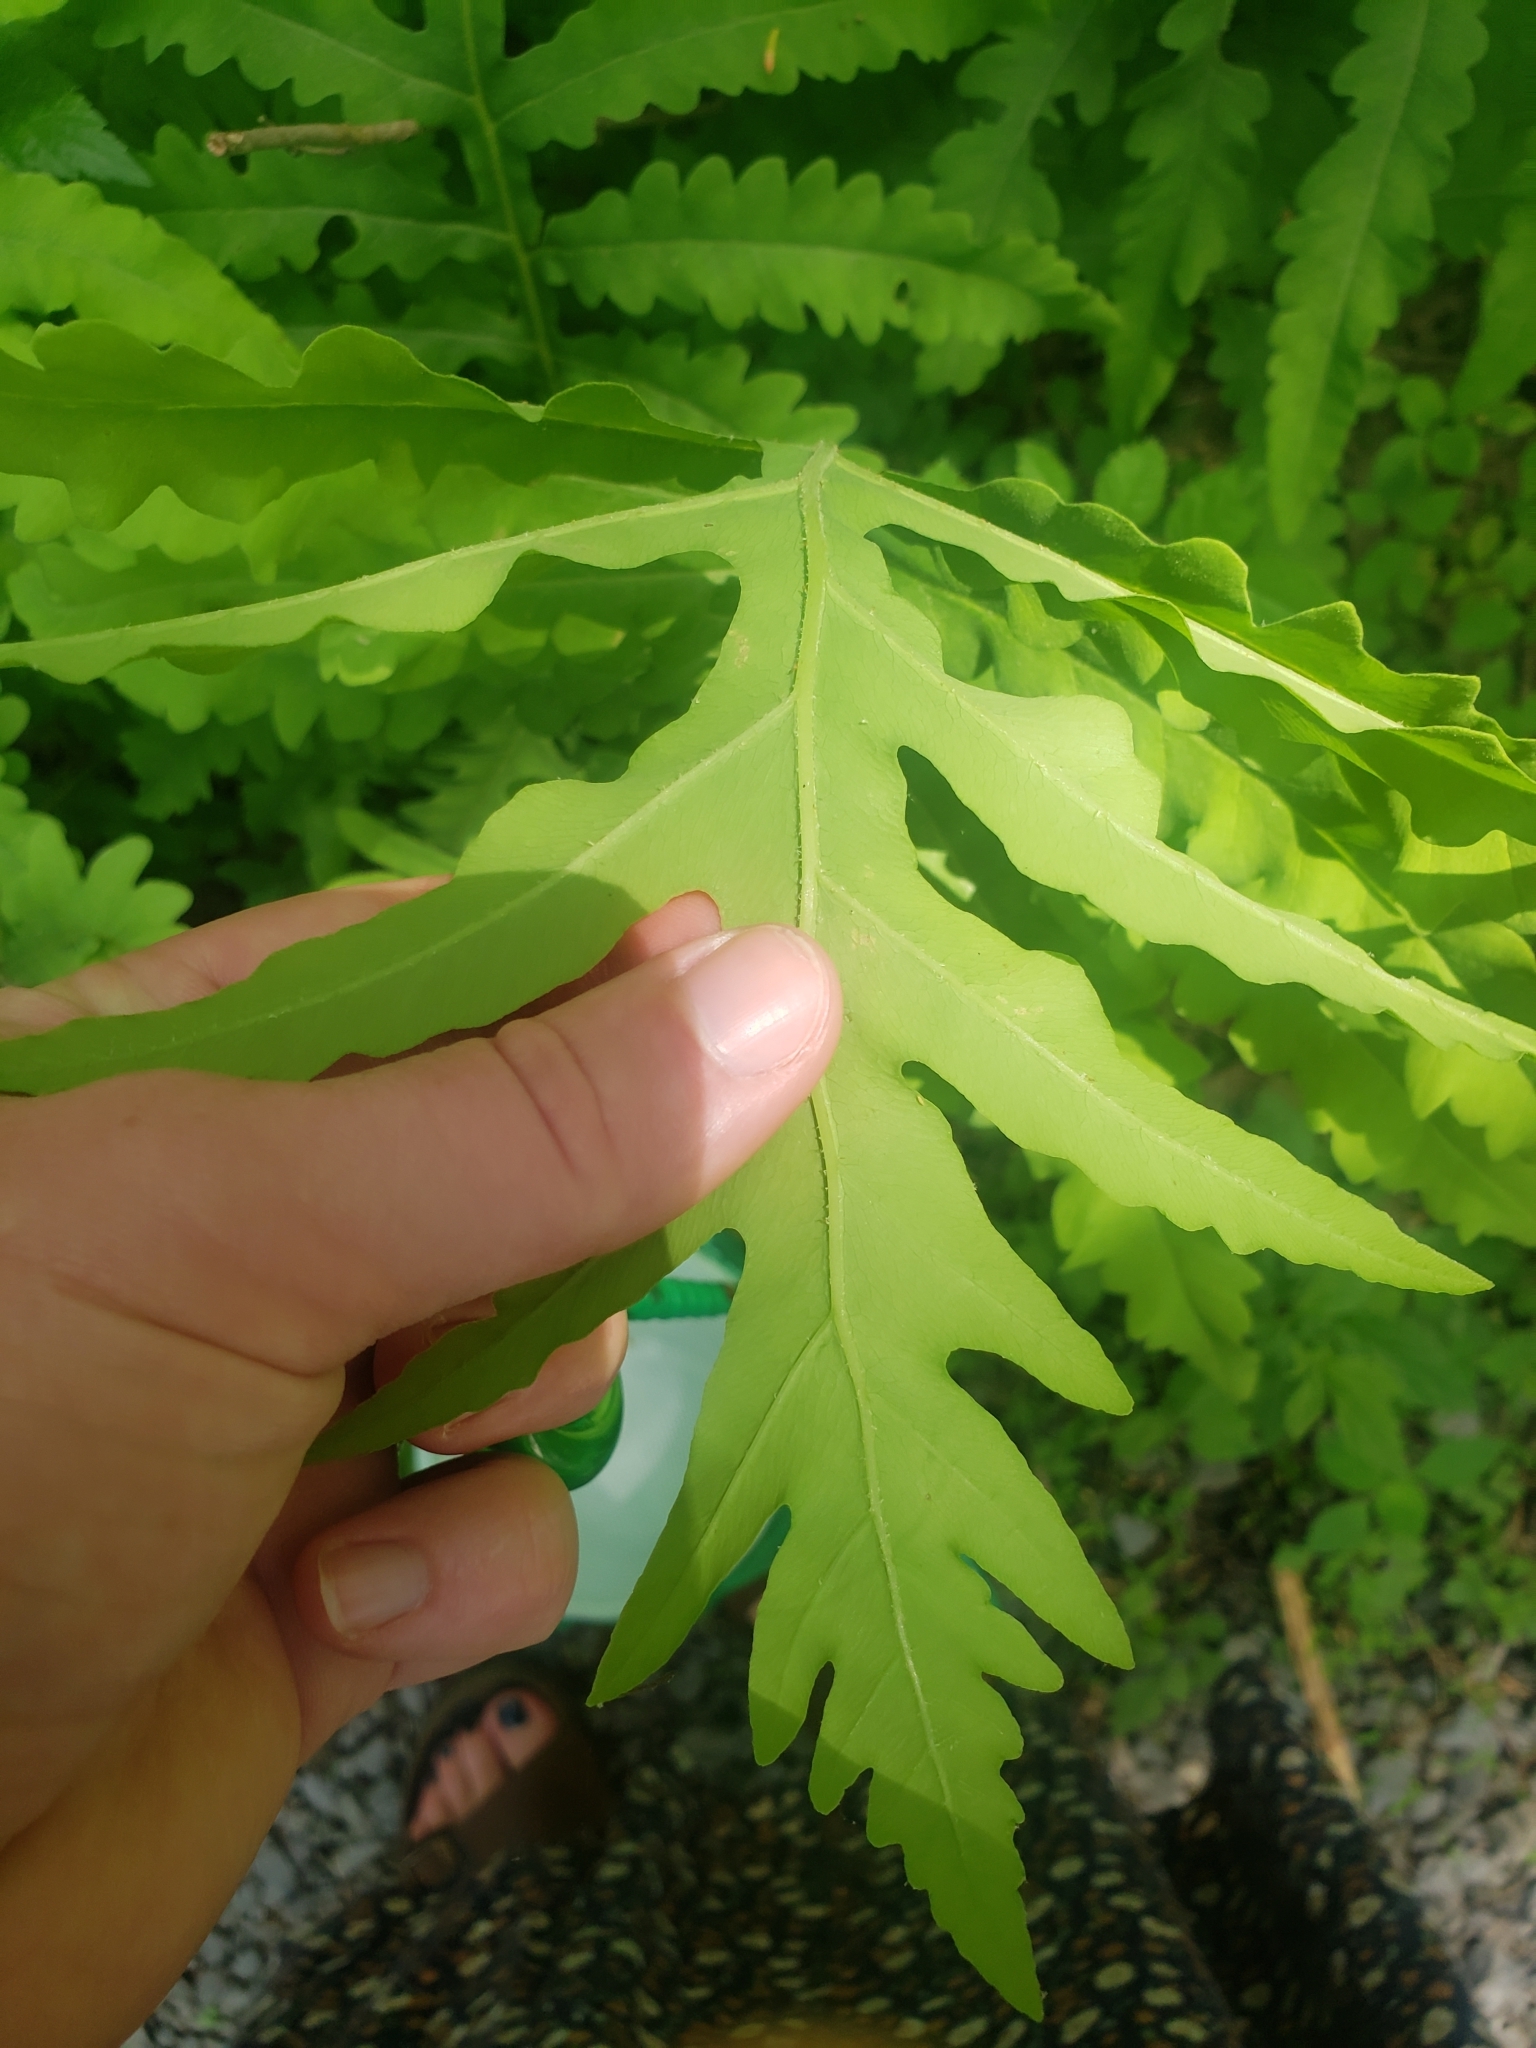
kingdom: Plantae
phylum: Tracheophyta
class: Polypodiopsida
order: Polypodiales
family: Onocleaceae
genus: Onoclea
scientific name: Onoclea sensibilis
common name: Sensitive fern
